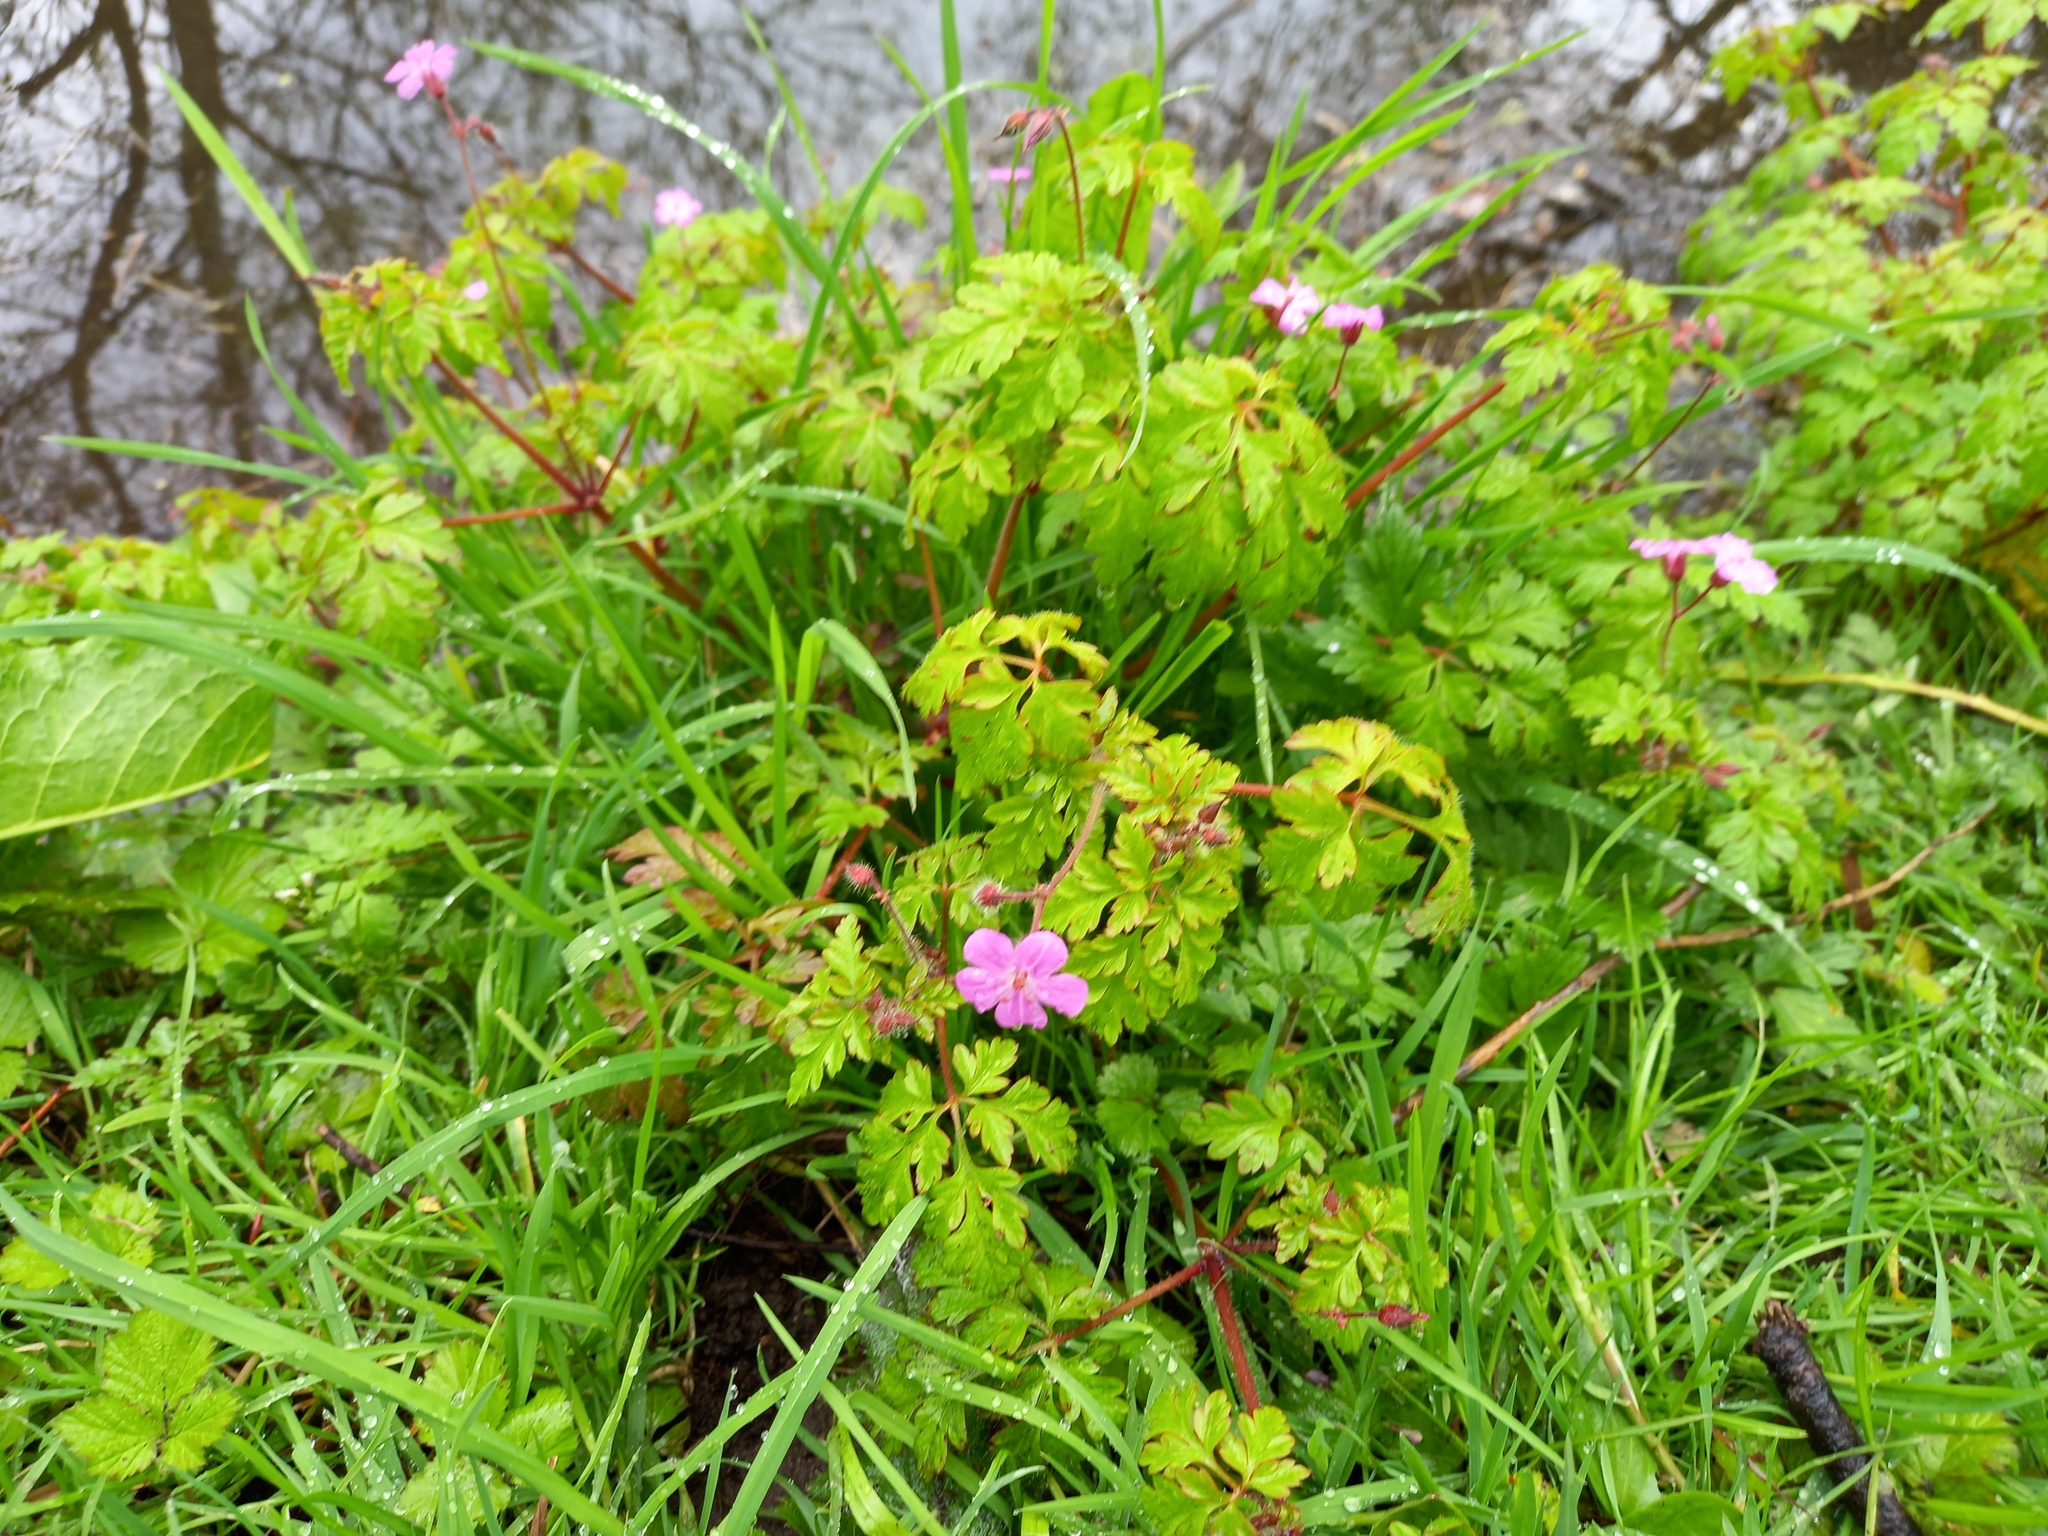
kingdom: Plantae
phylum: Tracheophyta
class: Magnoliopsida
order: Geraniales
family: Geraniaceae
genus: Geranium
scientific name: Geranium robertianum
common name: Herb-robert
